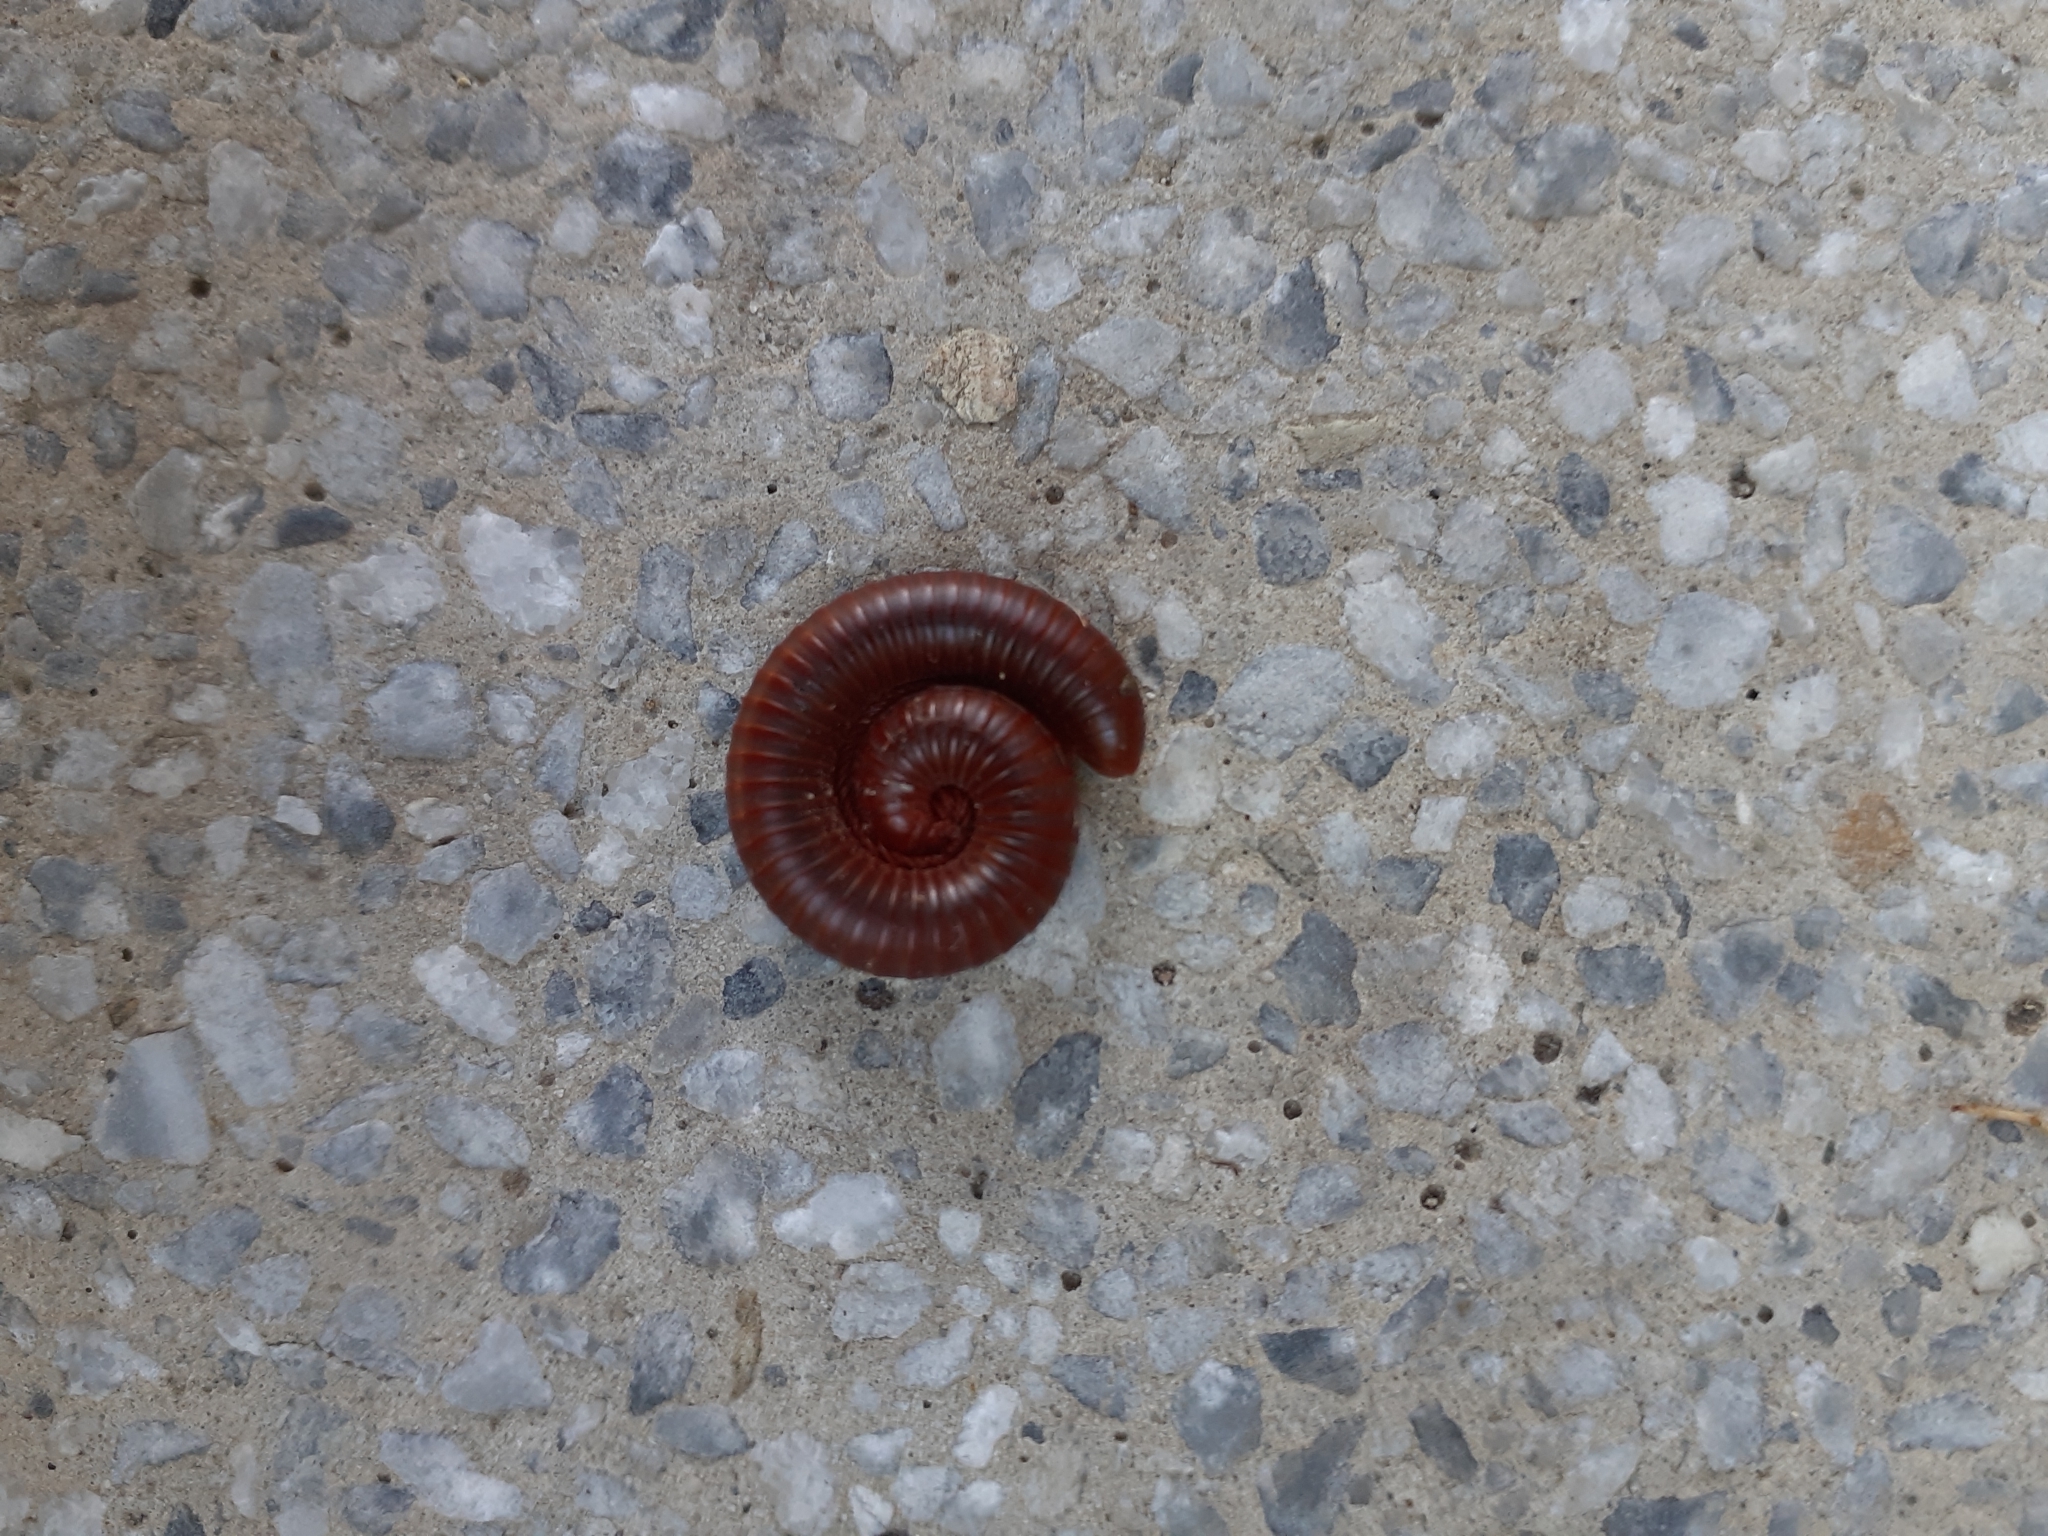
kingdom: Animalia
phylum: Arthropoda
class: Diplopoda
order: Spirobolida
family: Pachybolidae
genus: Trigoniulus
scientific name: Trigoniulus corallinus
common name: Millipede
